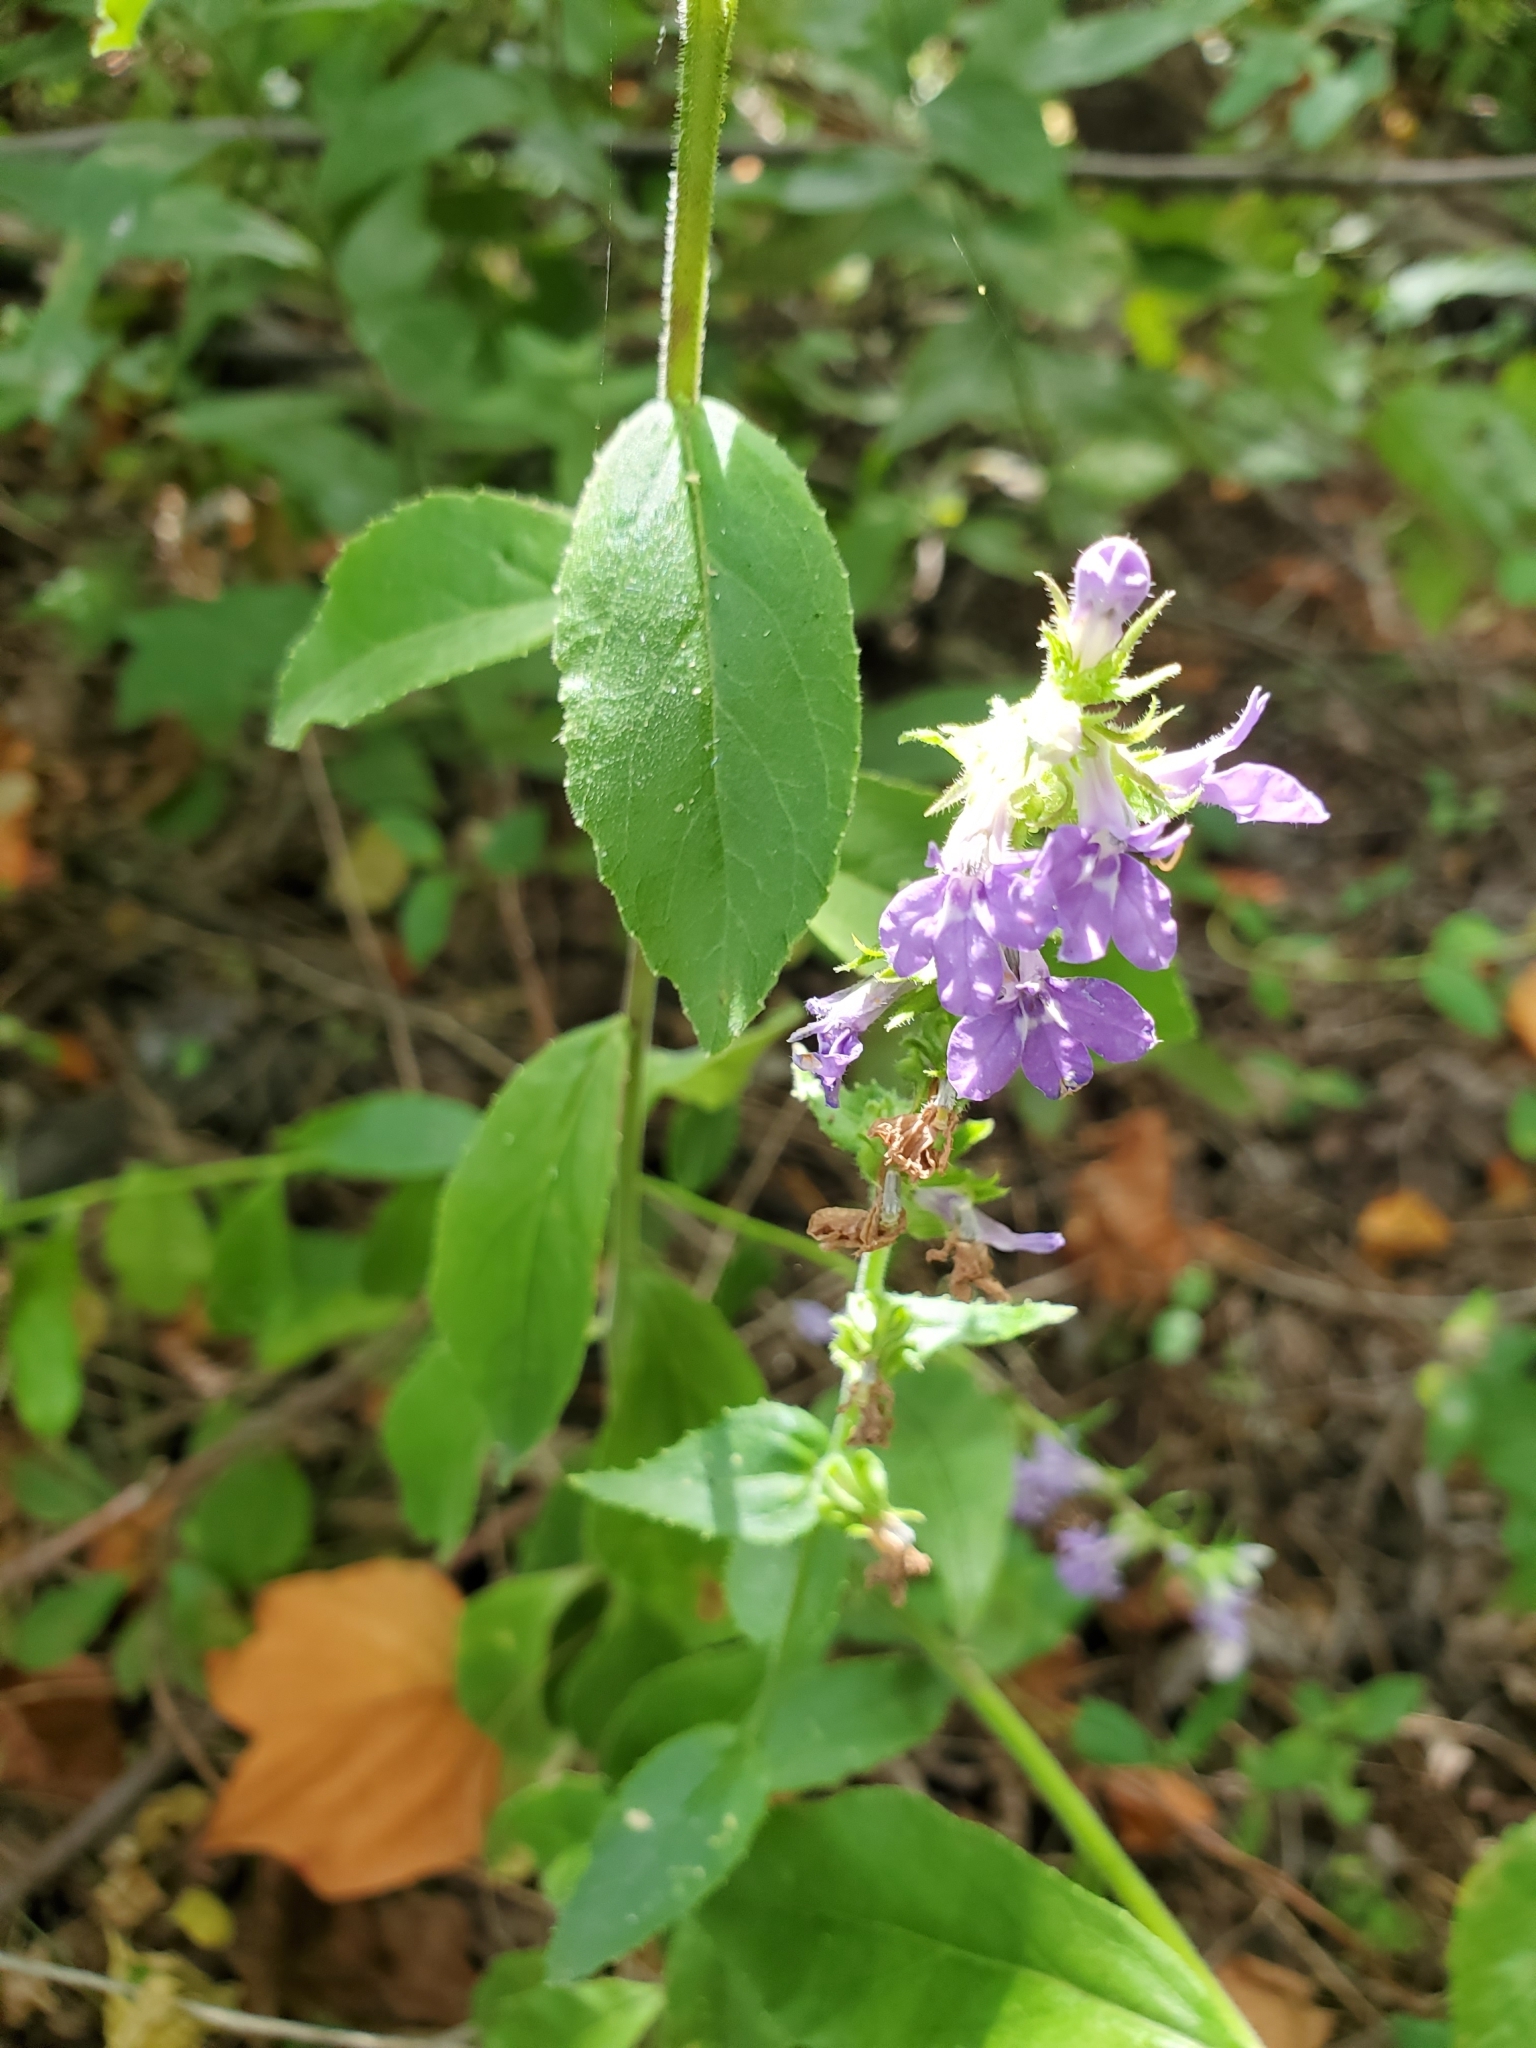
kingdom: Plantae
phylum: Tracheophyta
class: Magnoliopsida
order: Asterales
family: Campanulaceae
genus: Lobelia
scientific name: Lobelia puberula
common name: Purple dewdrop
